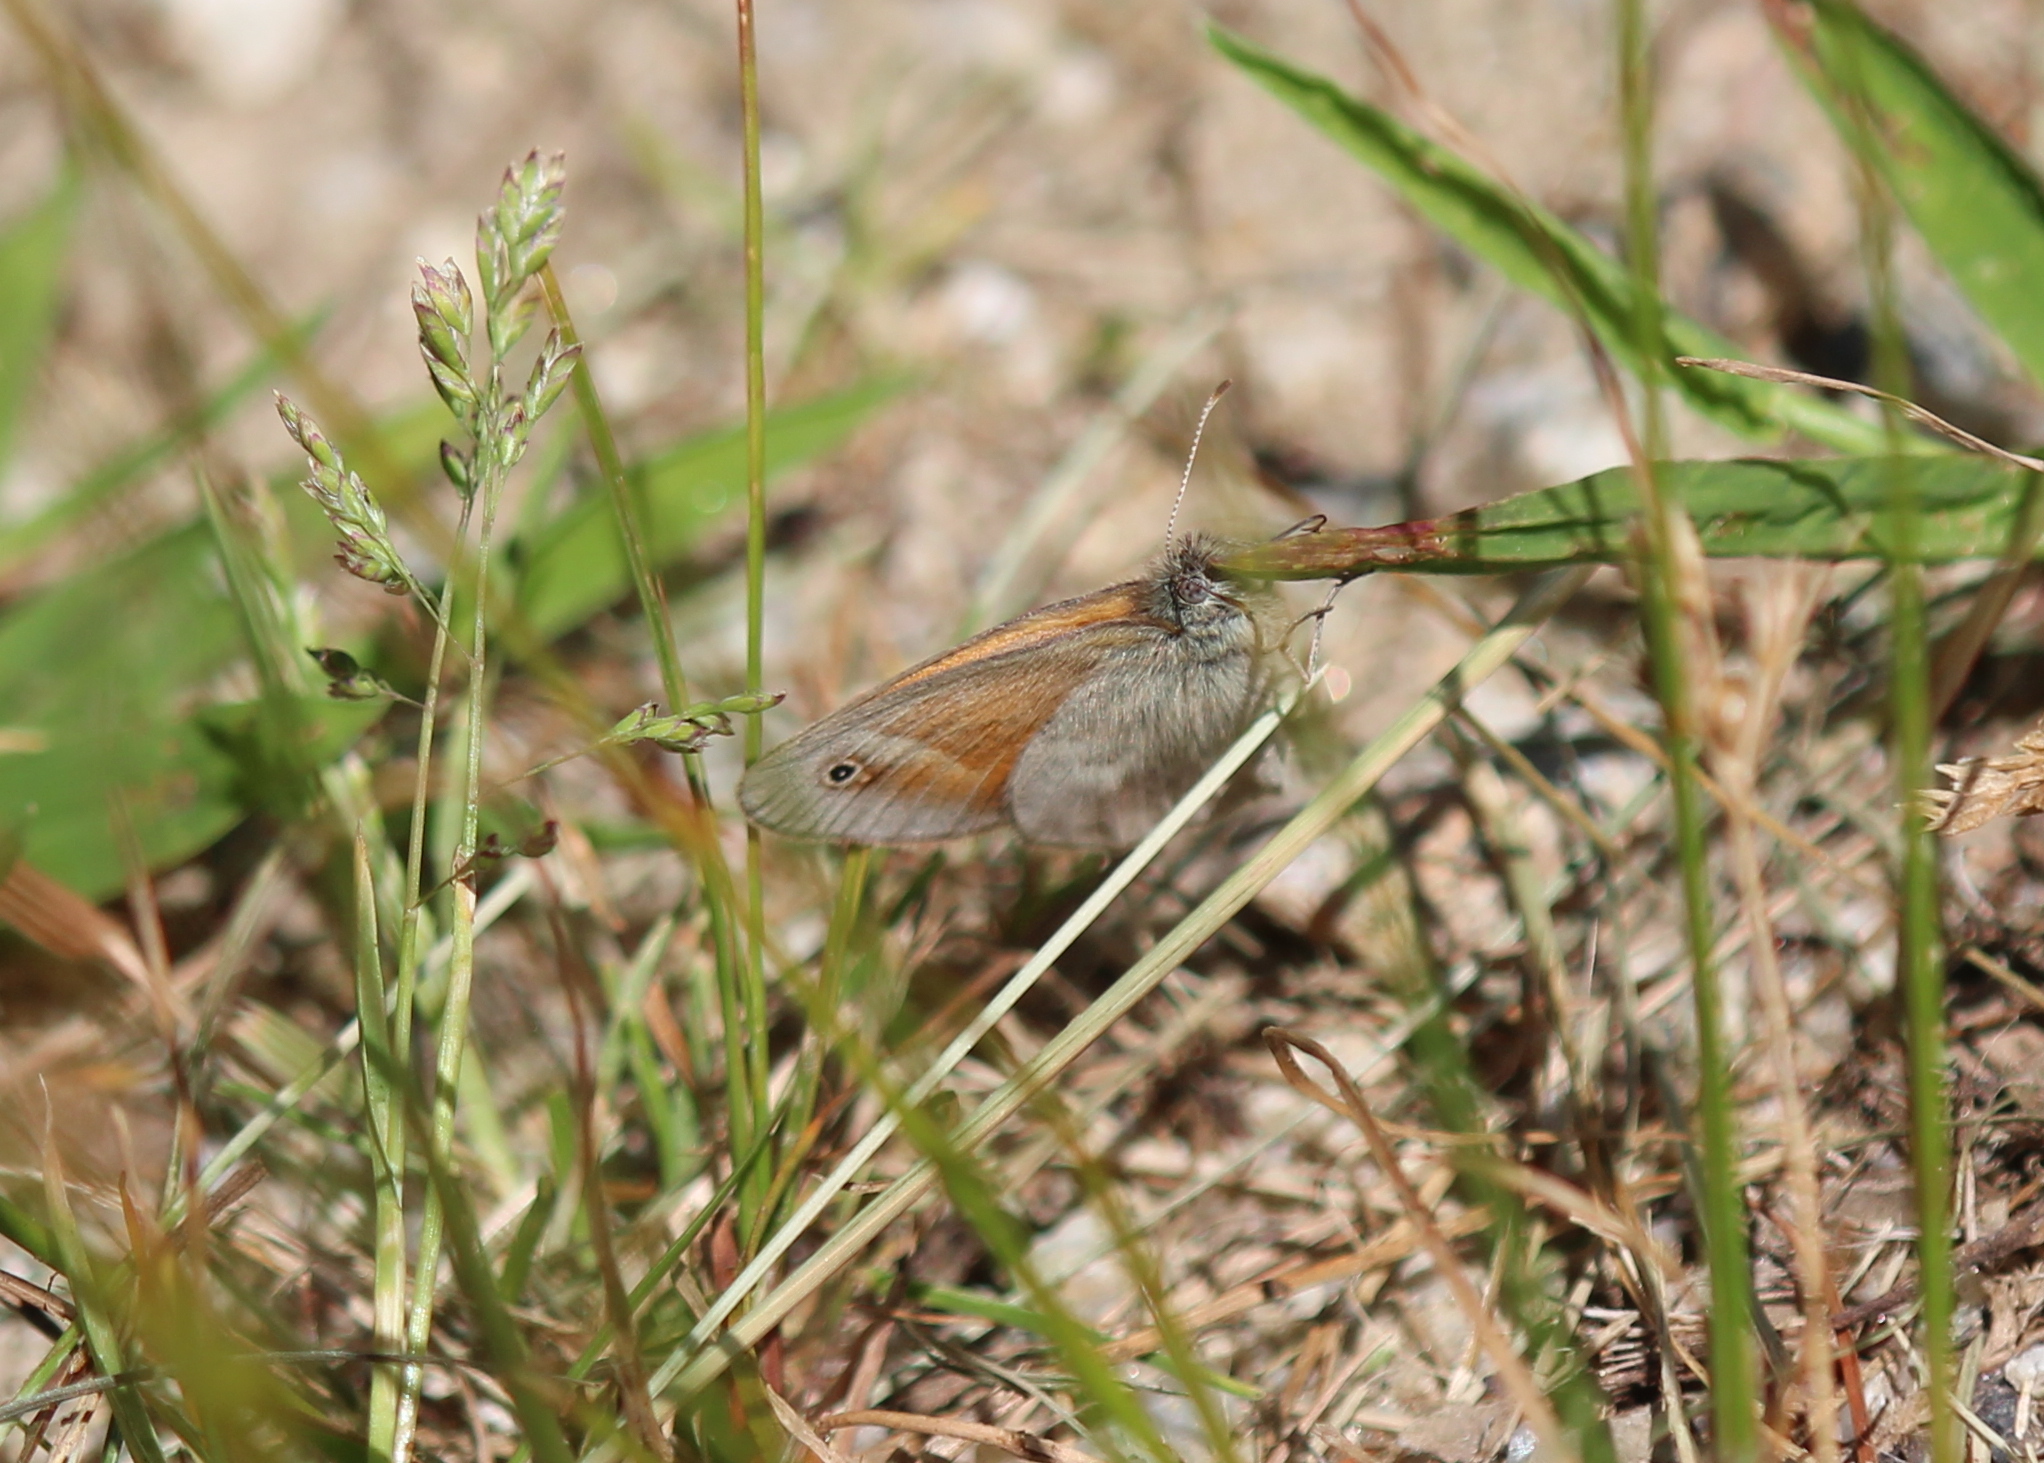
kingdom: Animalia
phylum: Arthropoda
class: Insecta
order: Lepidoptera
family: Nymphalidae
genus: Coenonympha
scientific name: Coenonympha california
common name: Common ringlet
